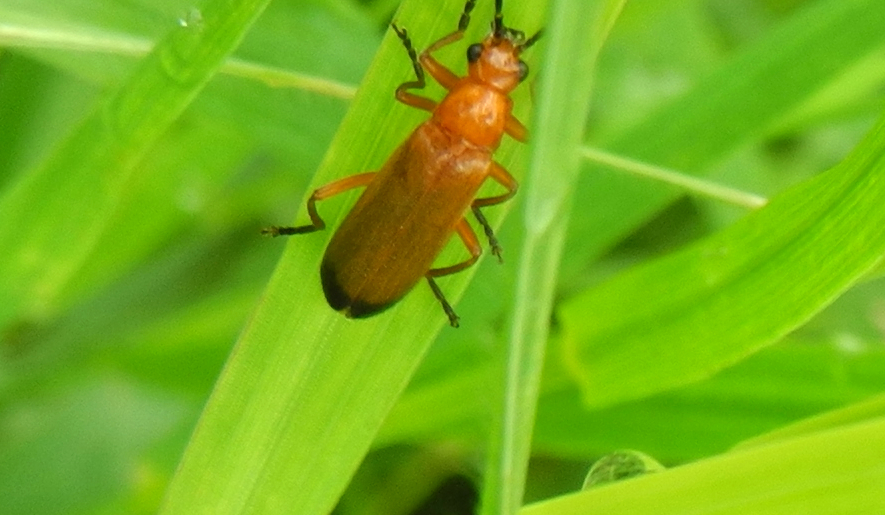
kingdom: Animalia
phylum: Arthropoda
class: Insecta
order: Coleoptera
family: Cantharidae
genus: Rhagonycha
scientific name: Rhagonycha fulva
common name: Common red soldier beetle
